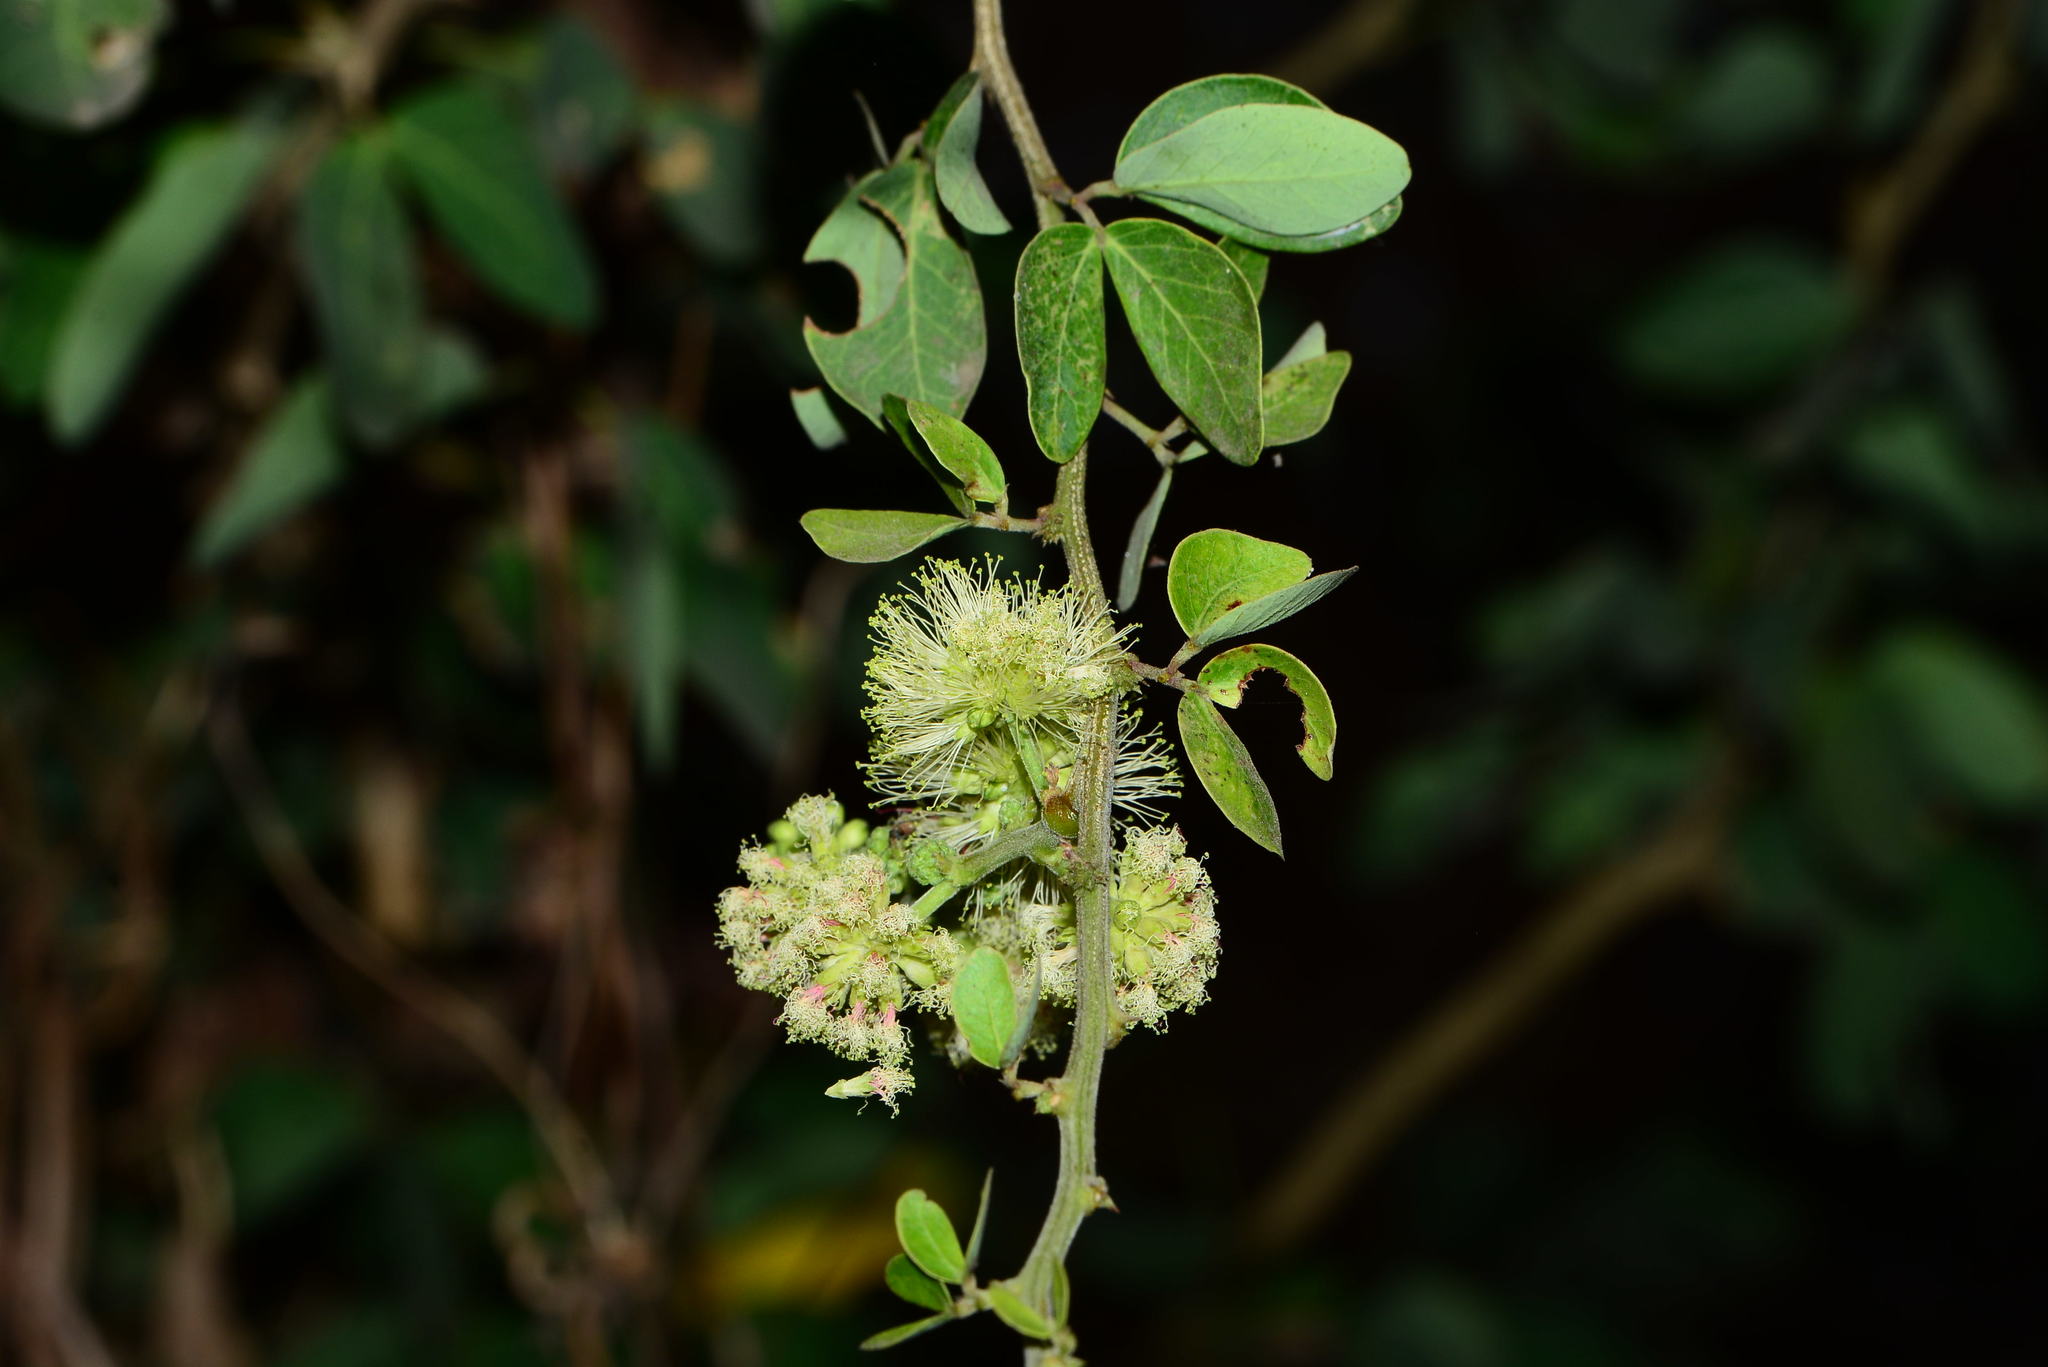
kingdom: Plantae
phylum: Tracheophyta
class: Magnoliopsida
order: Fabales
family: Fabaceae
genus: Pithecellobium
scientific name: Pithecellobium dulce
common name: Monkeypod
